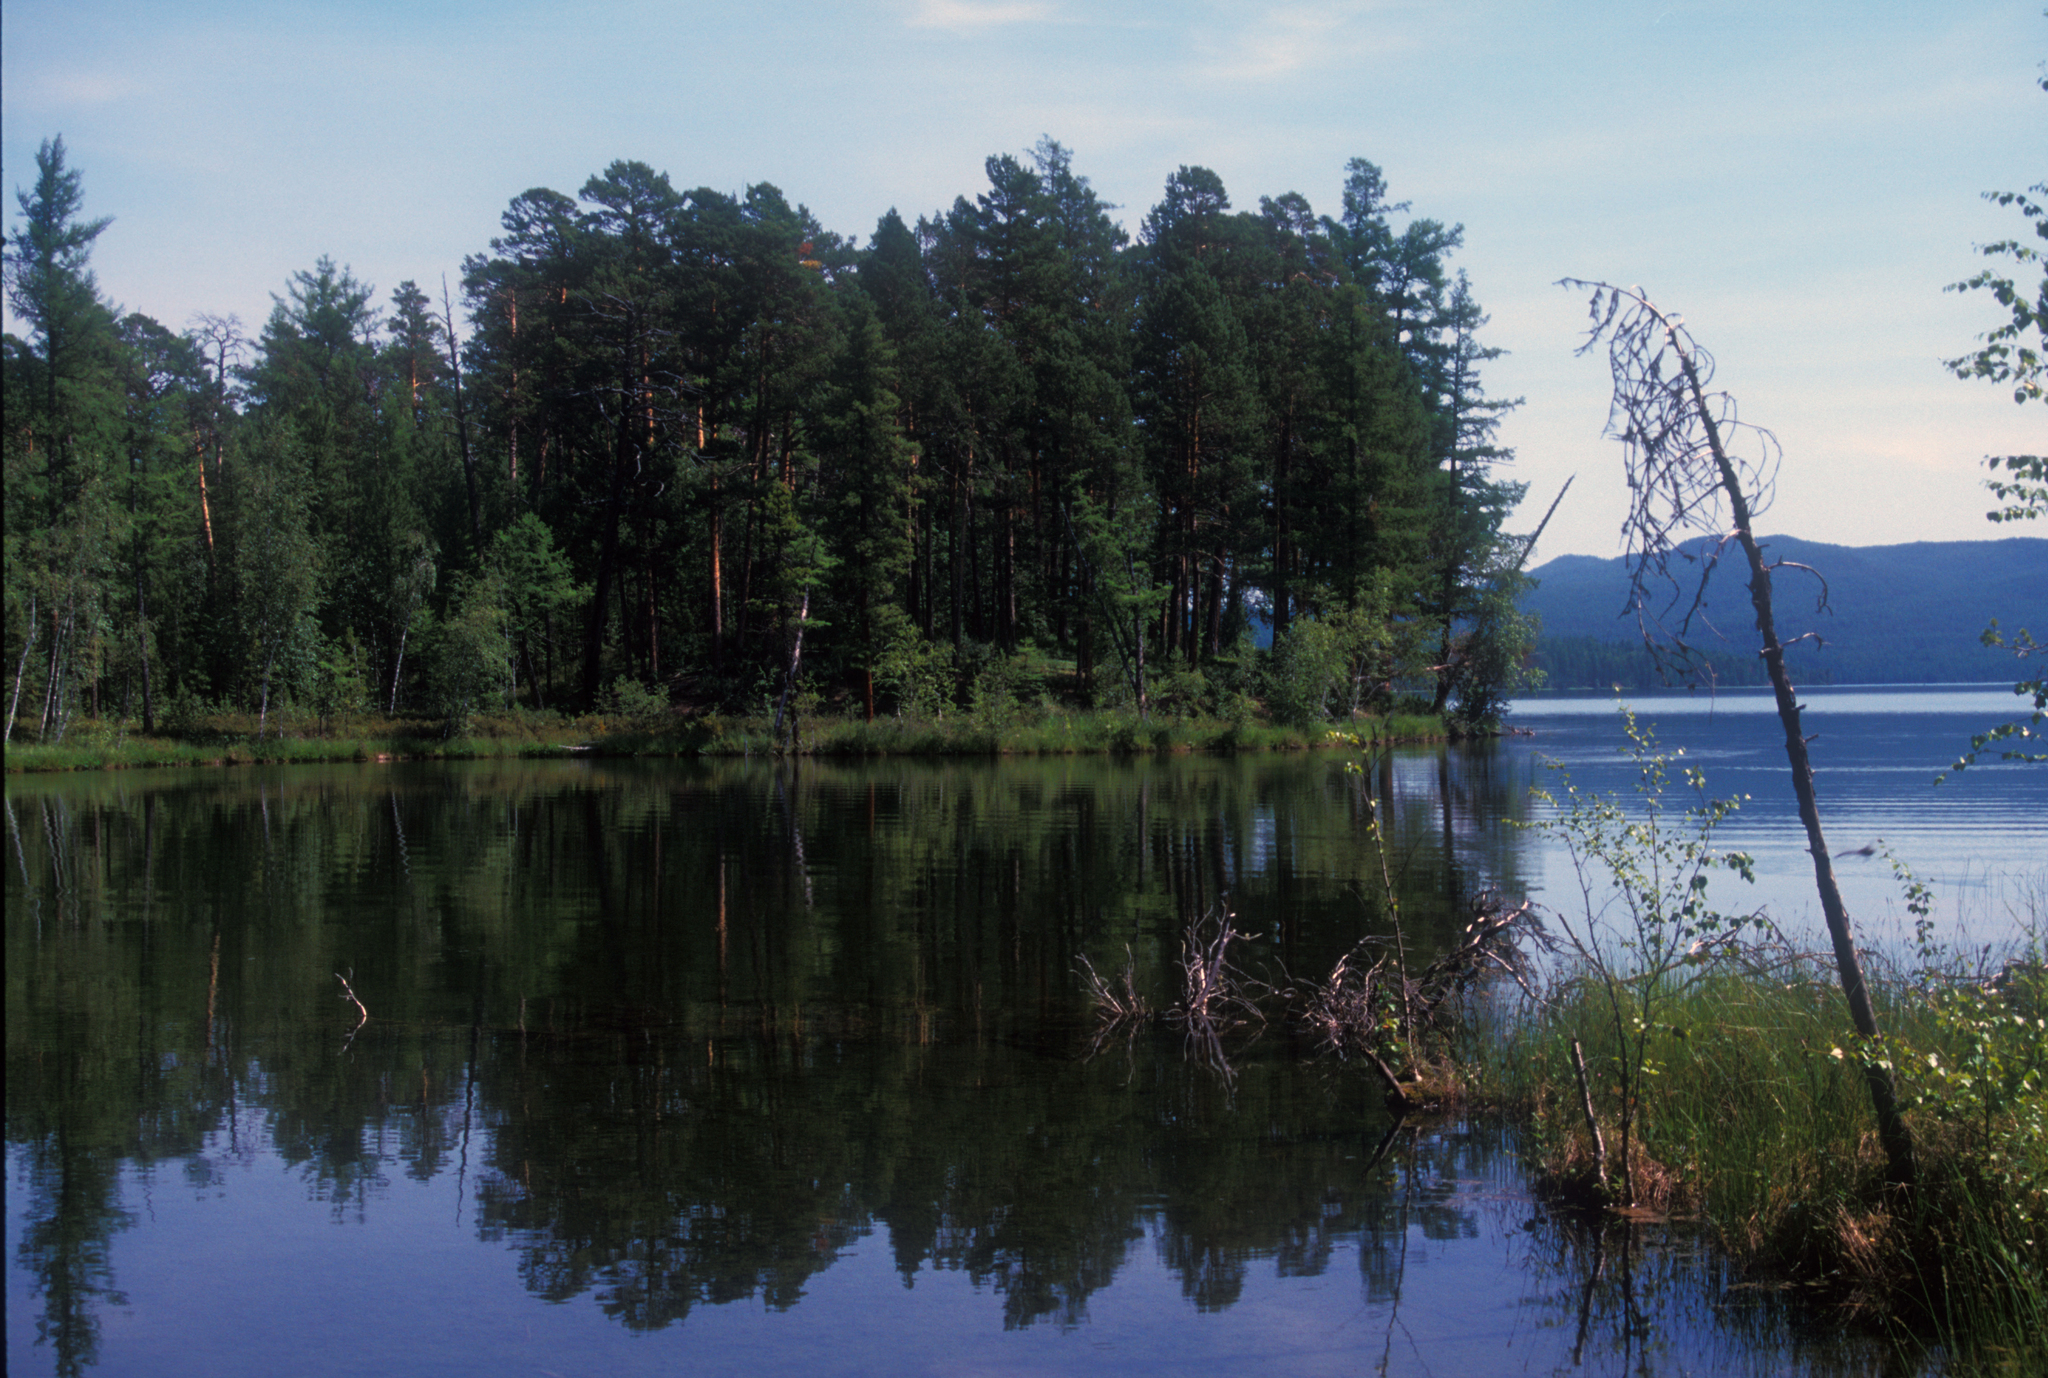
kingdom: Plantae
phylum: Tracheophyta
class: Pinopsida
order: Pinales
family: Pinaceae
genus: Pinus
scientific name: Pinus sylvestris
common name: Scots pine
